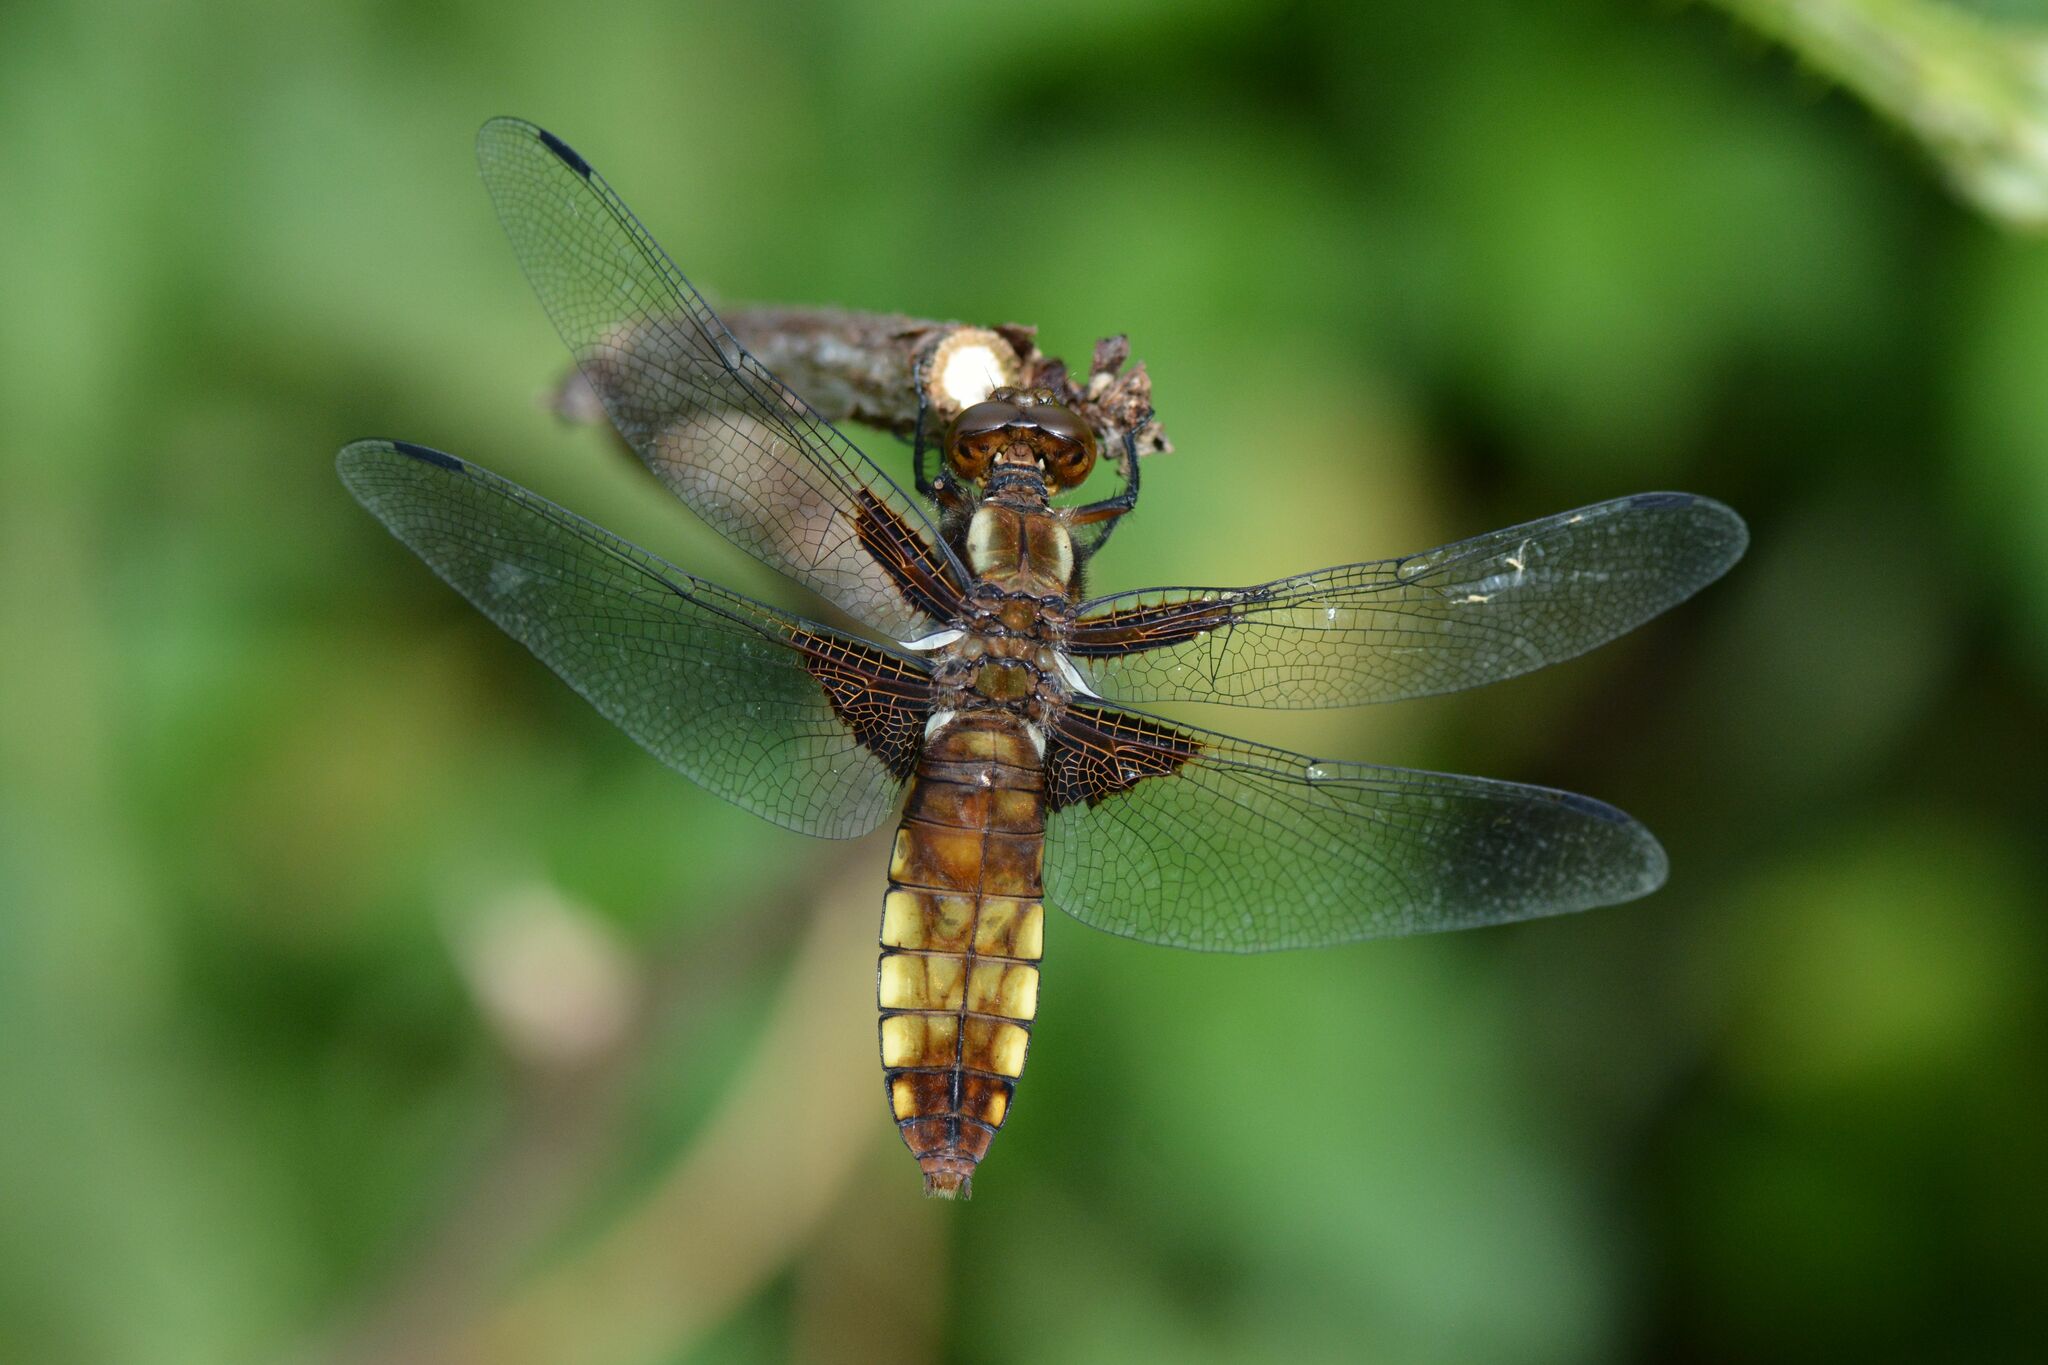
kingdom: Animalia
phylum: Arthropoda
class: Insecta
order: Odonata
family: Libellulidae
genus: Libellula
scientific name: Libellula depressa
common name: Broad-bodied chaser
